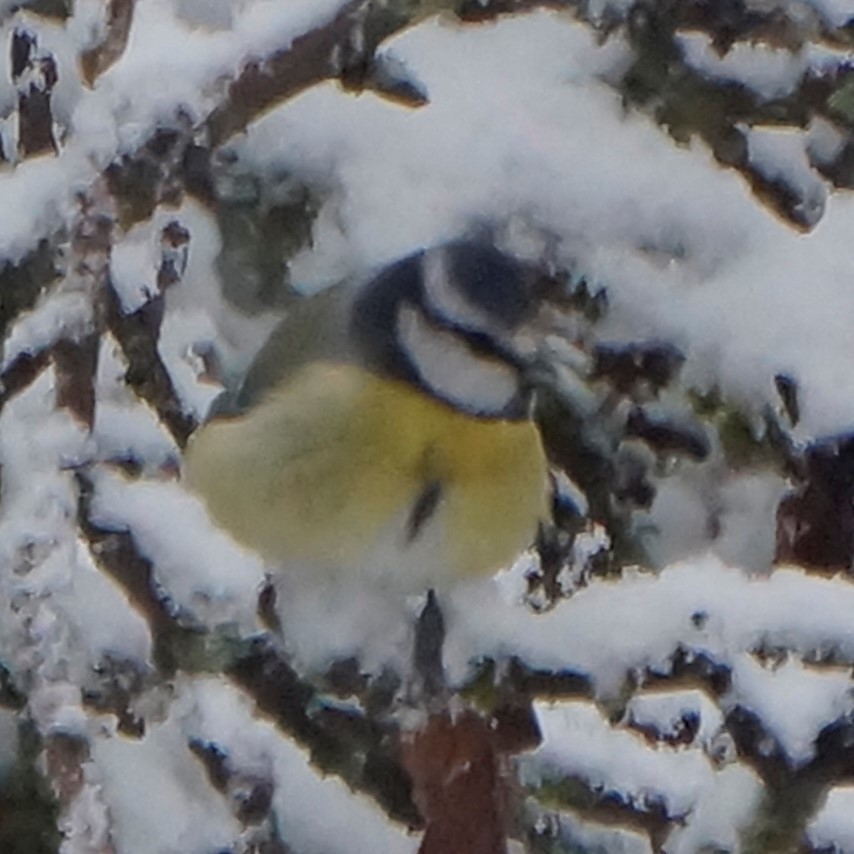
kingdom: Animalia
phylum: Chordata
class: Aves
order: Passeriformes
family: Paridae
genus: Cyanistes
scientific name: Cyanistes caeruleus
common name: Eurasian blue tit
